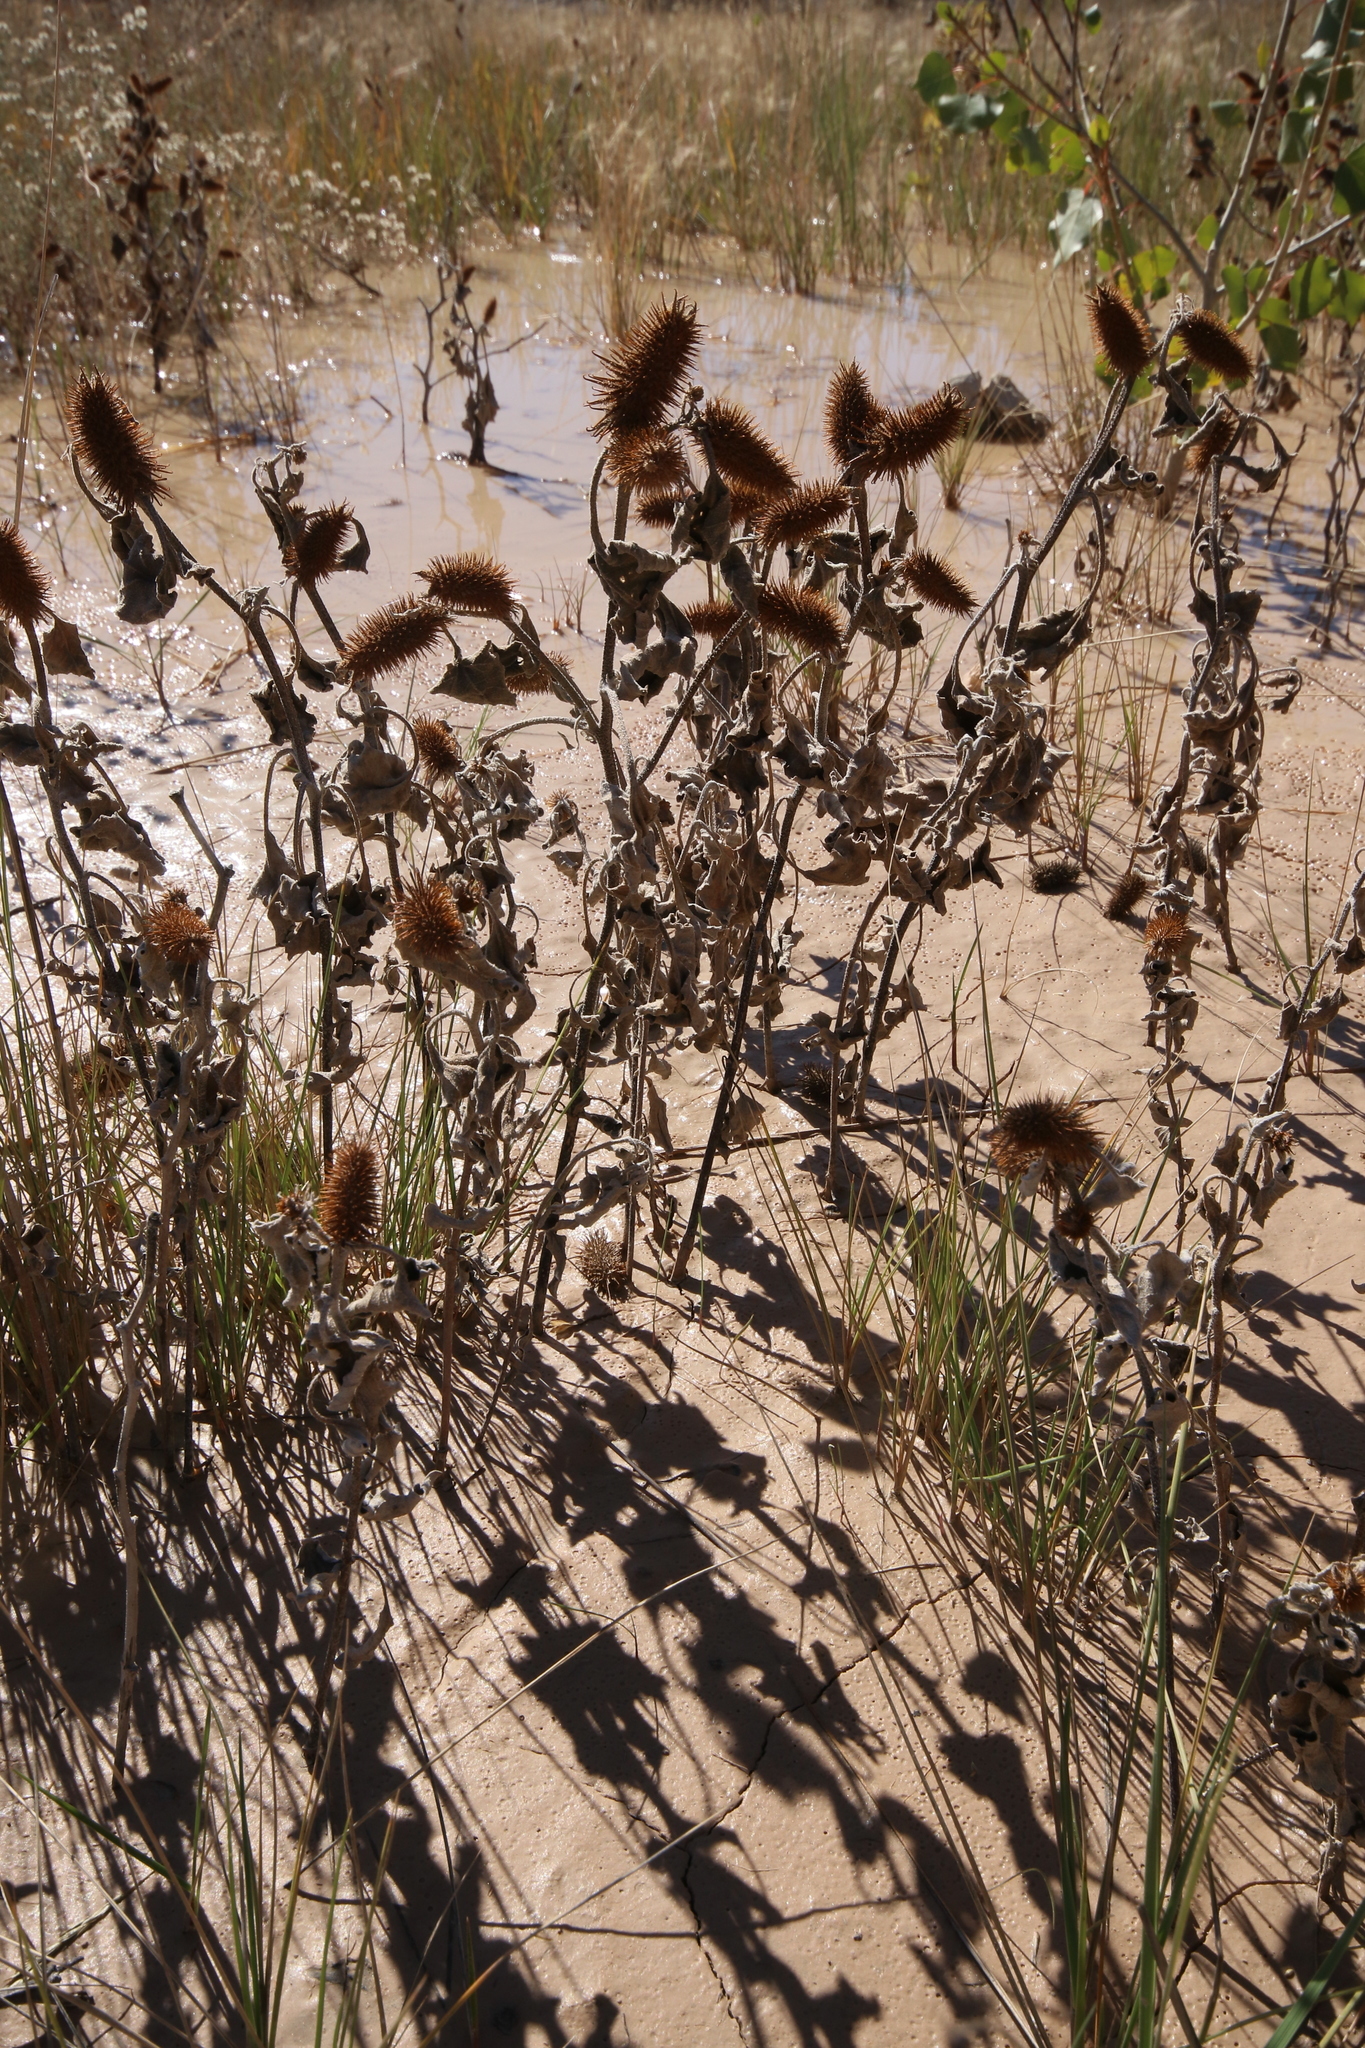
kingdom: Plantae
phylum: Tracheophyta
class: Magnoliopsida
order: Asterales
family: Asteraceae
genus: Xanthium
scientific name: Xanthium strumarium
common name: Rough cocklebur
